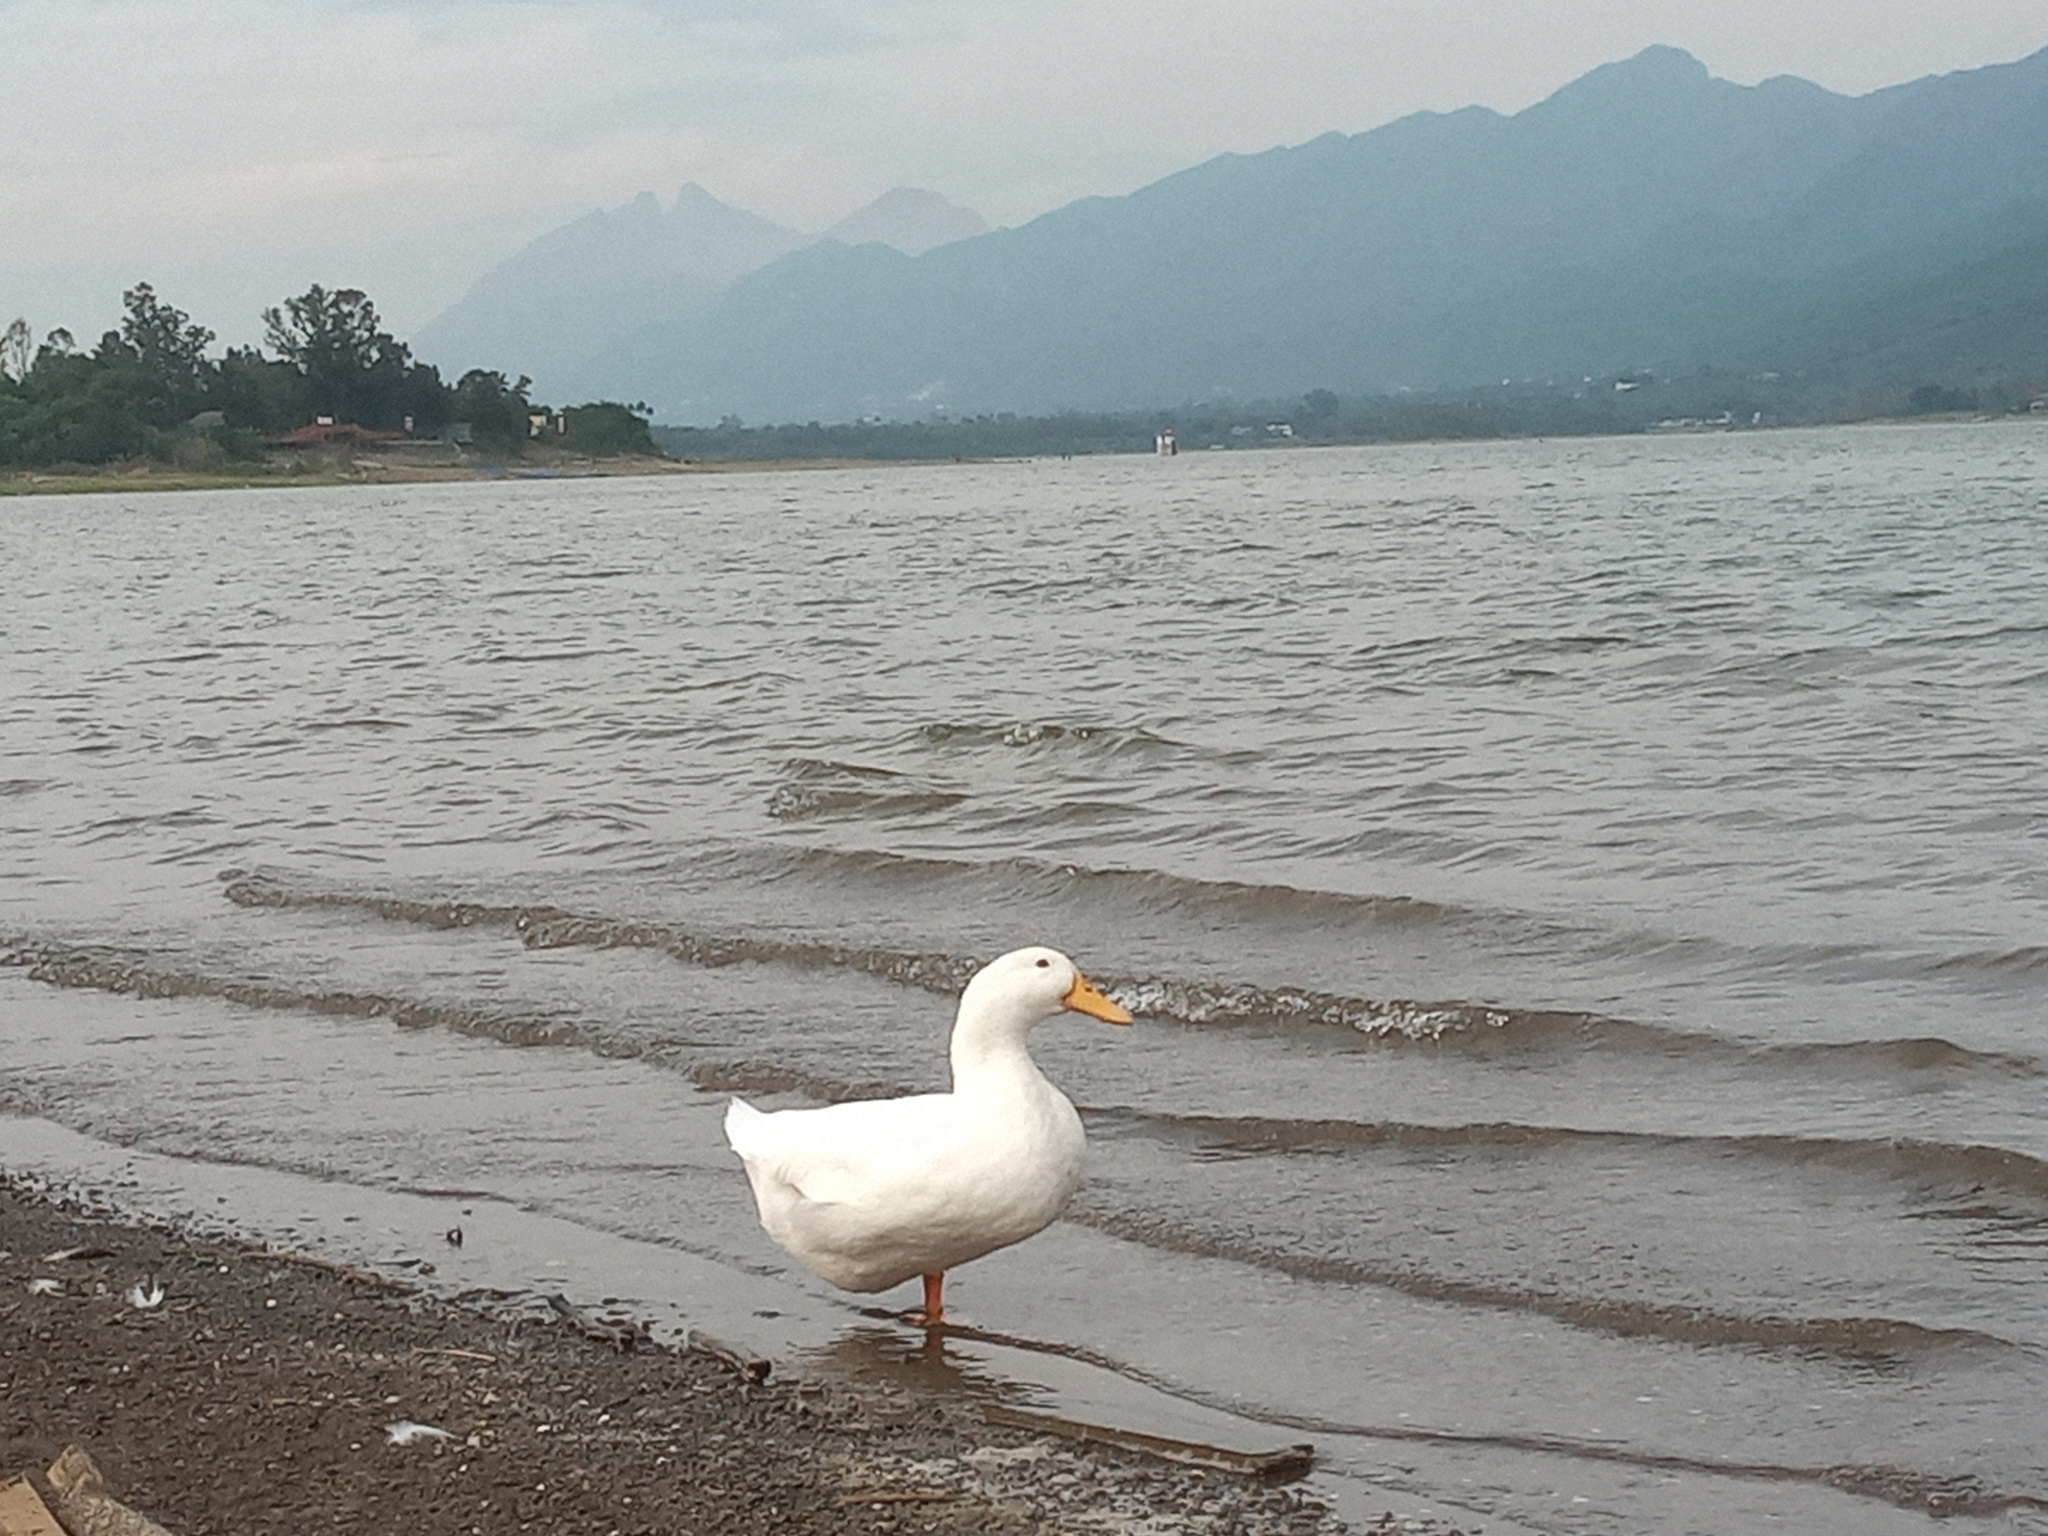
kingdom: Animalia
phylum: Chordata
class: Aves
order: Anseriformes
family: Anatidae
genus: Anas
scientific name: Anas platyrhynchos
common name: Mallard
